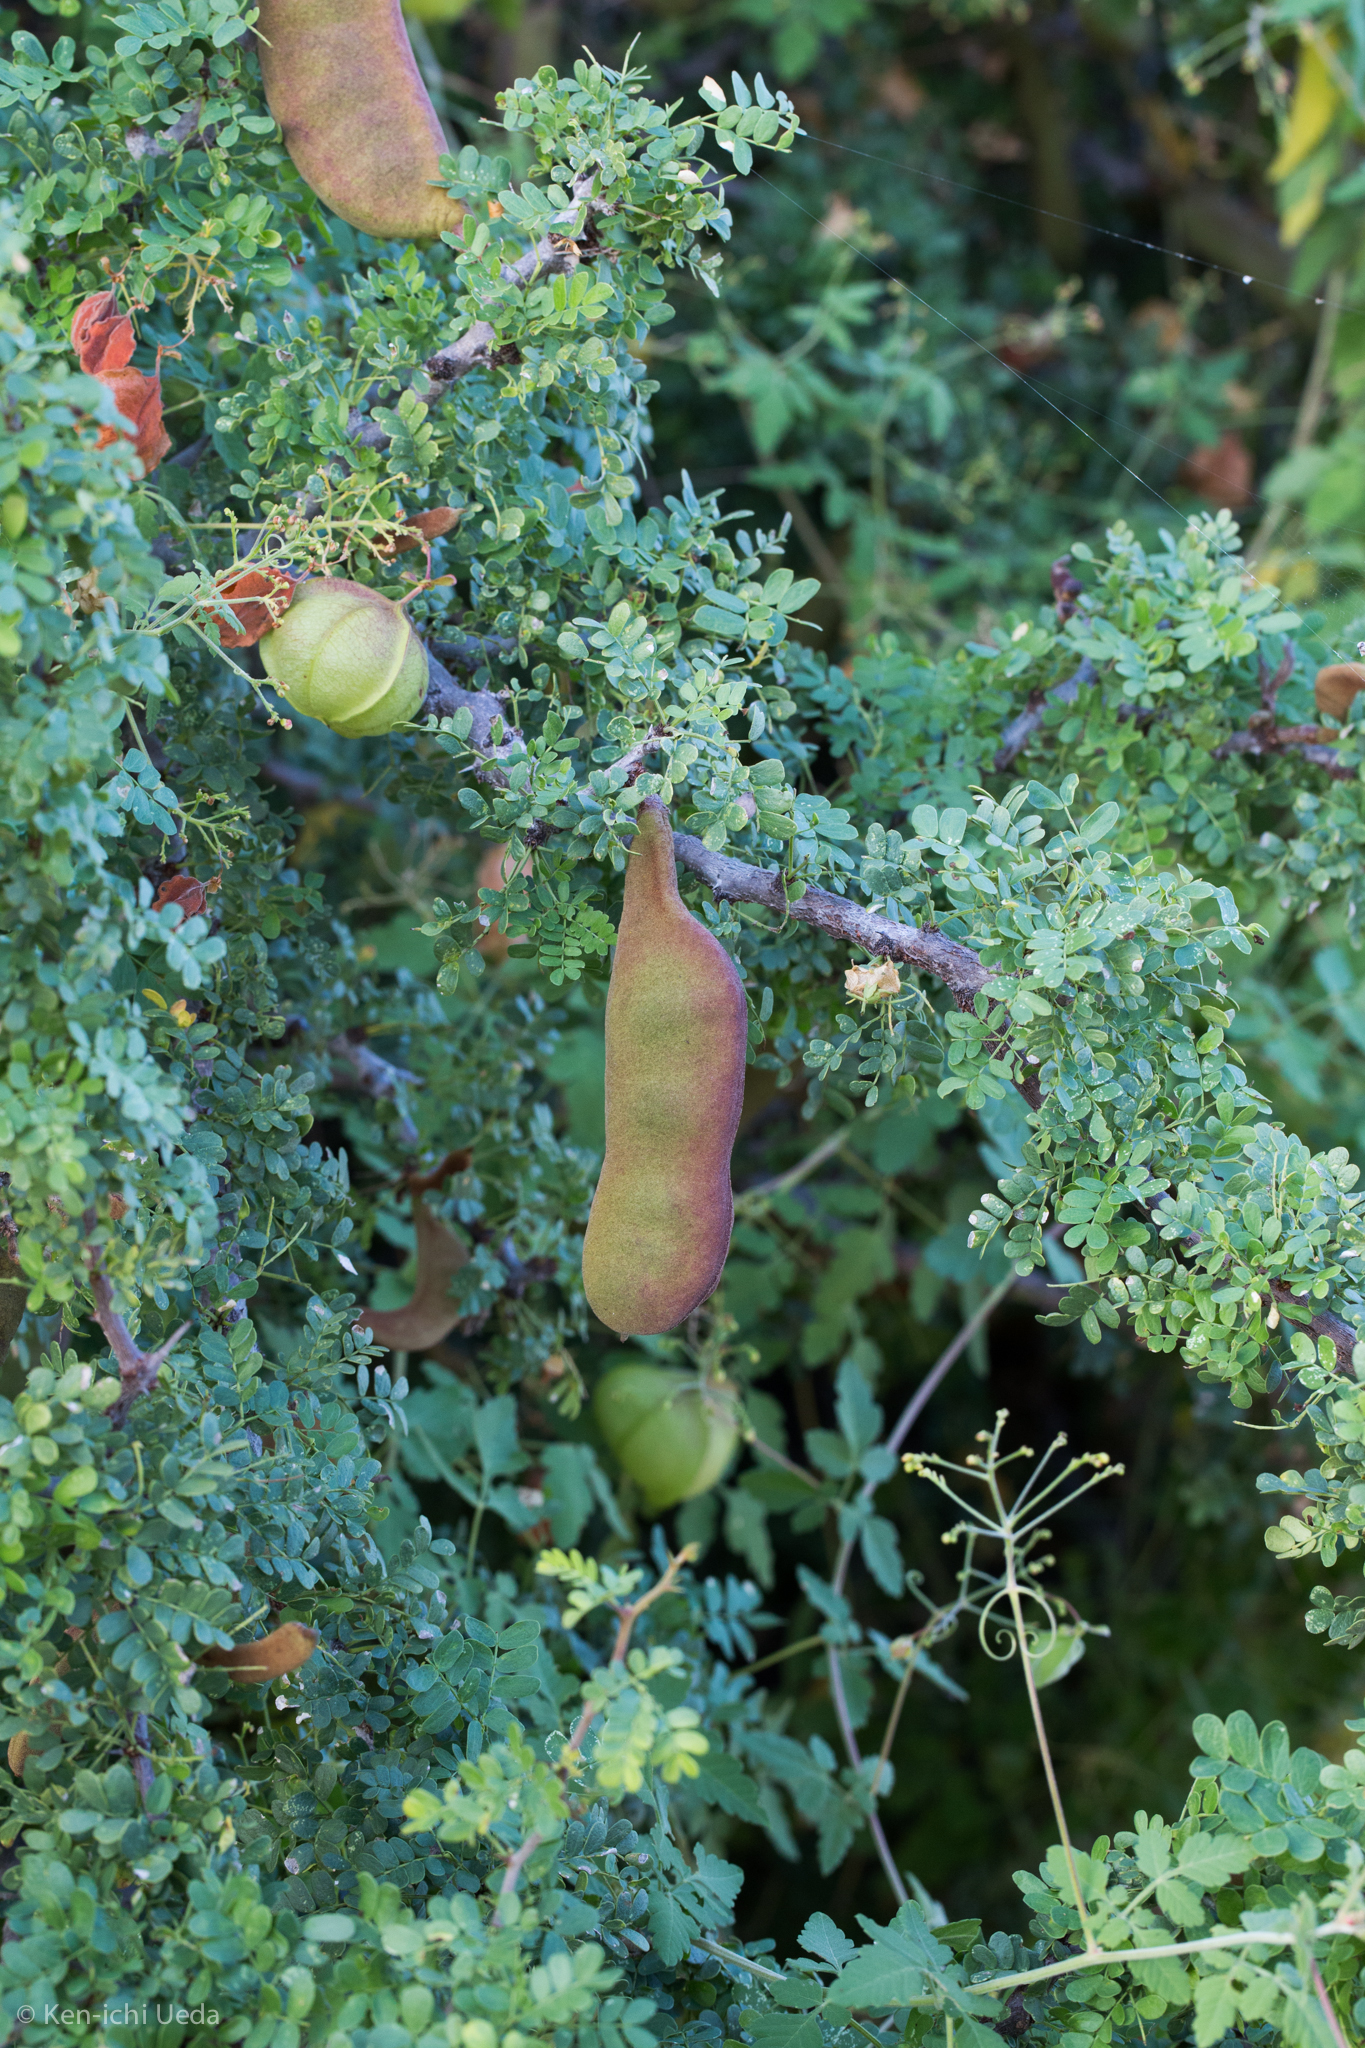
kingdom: Plantae
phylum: Tracheophyta
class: Magnoliopsida
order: Fabales
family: Fabaceae
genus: Ebenopsis
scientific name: Ebenopsis confinis
